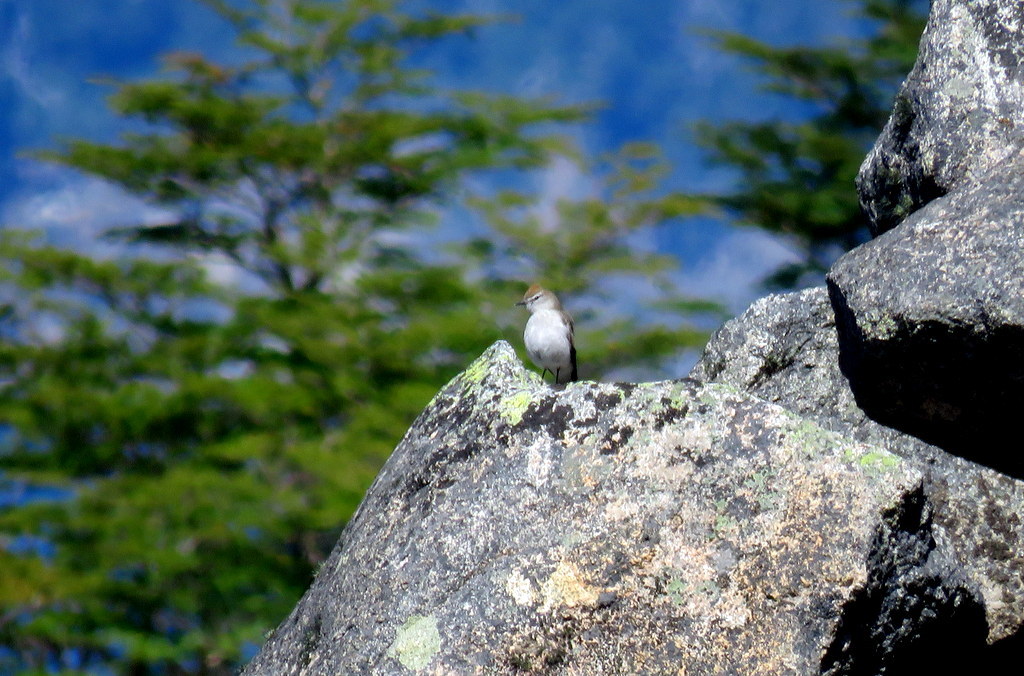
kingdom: Animalia
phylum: Chordata
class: Aves
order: Passeriformes
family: Tyrannidae
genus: Muscisaxicola
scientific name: Muscisaxicola albilora
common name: White-browed ground tyrant
